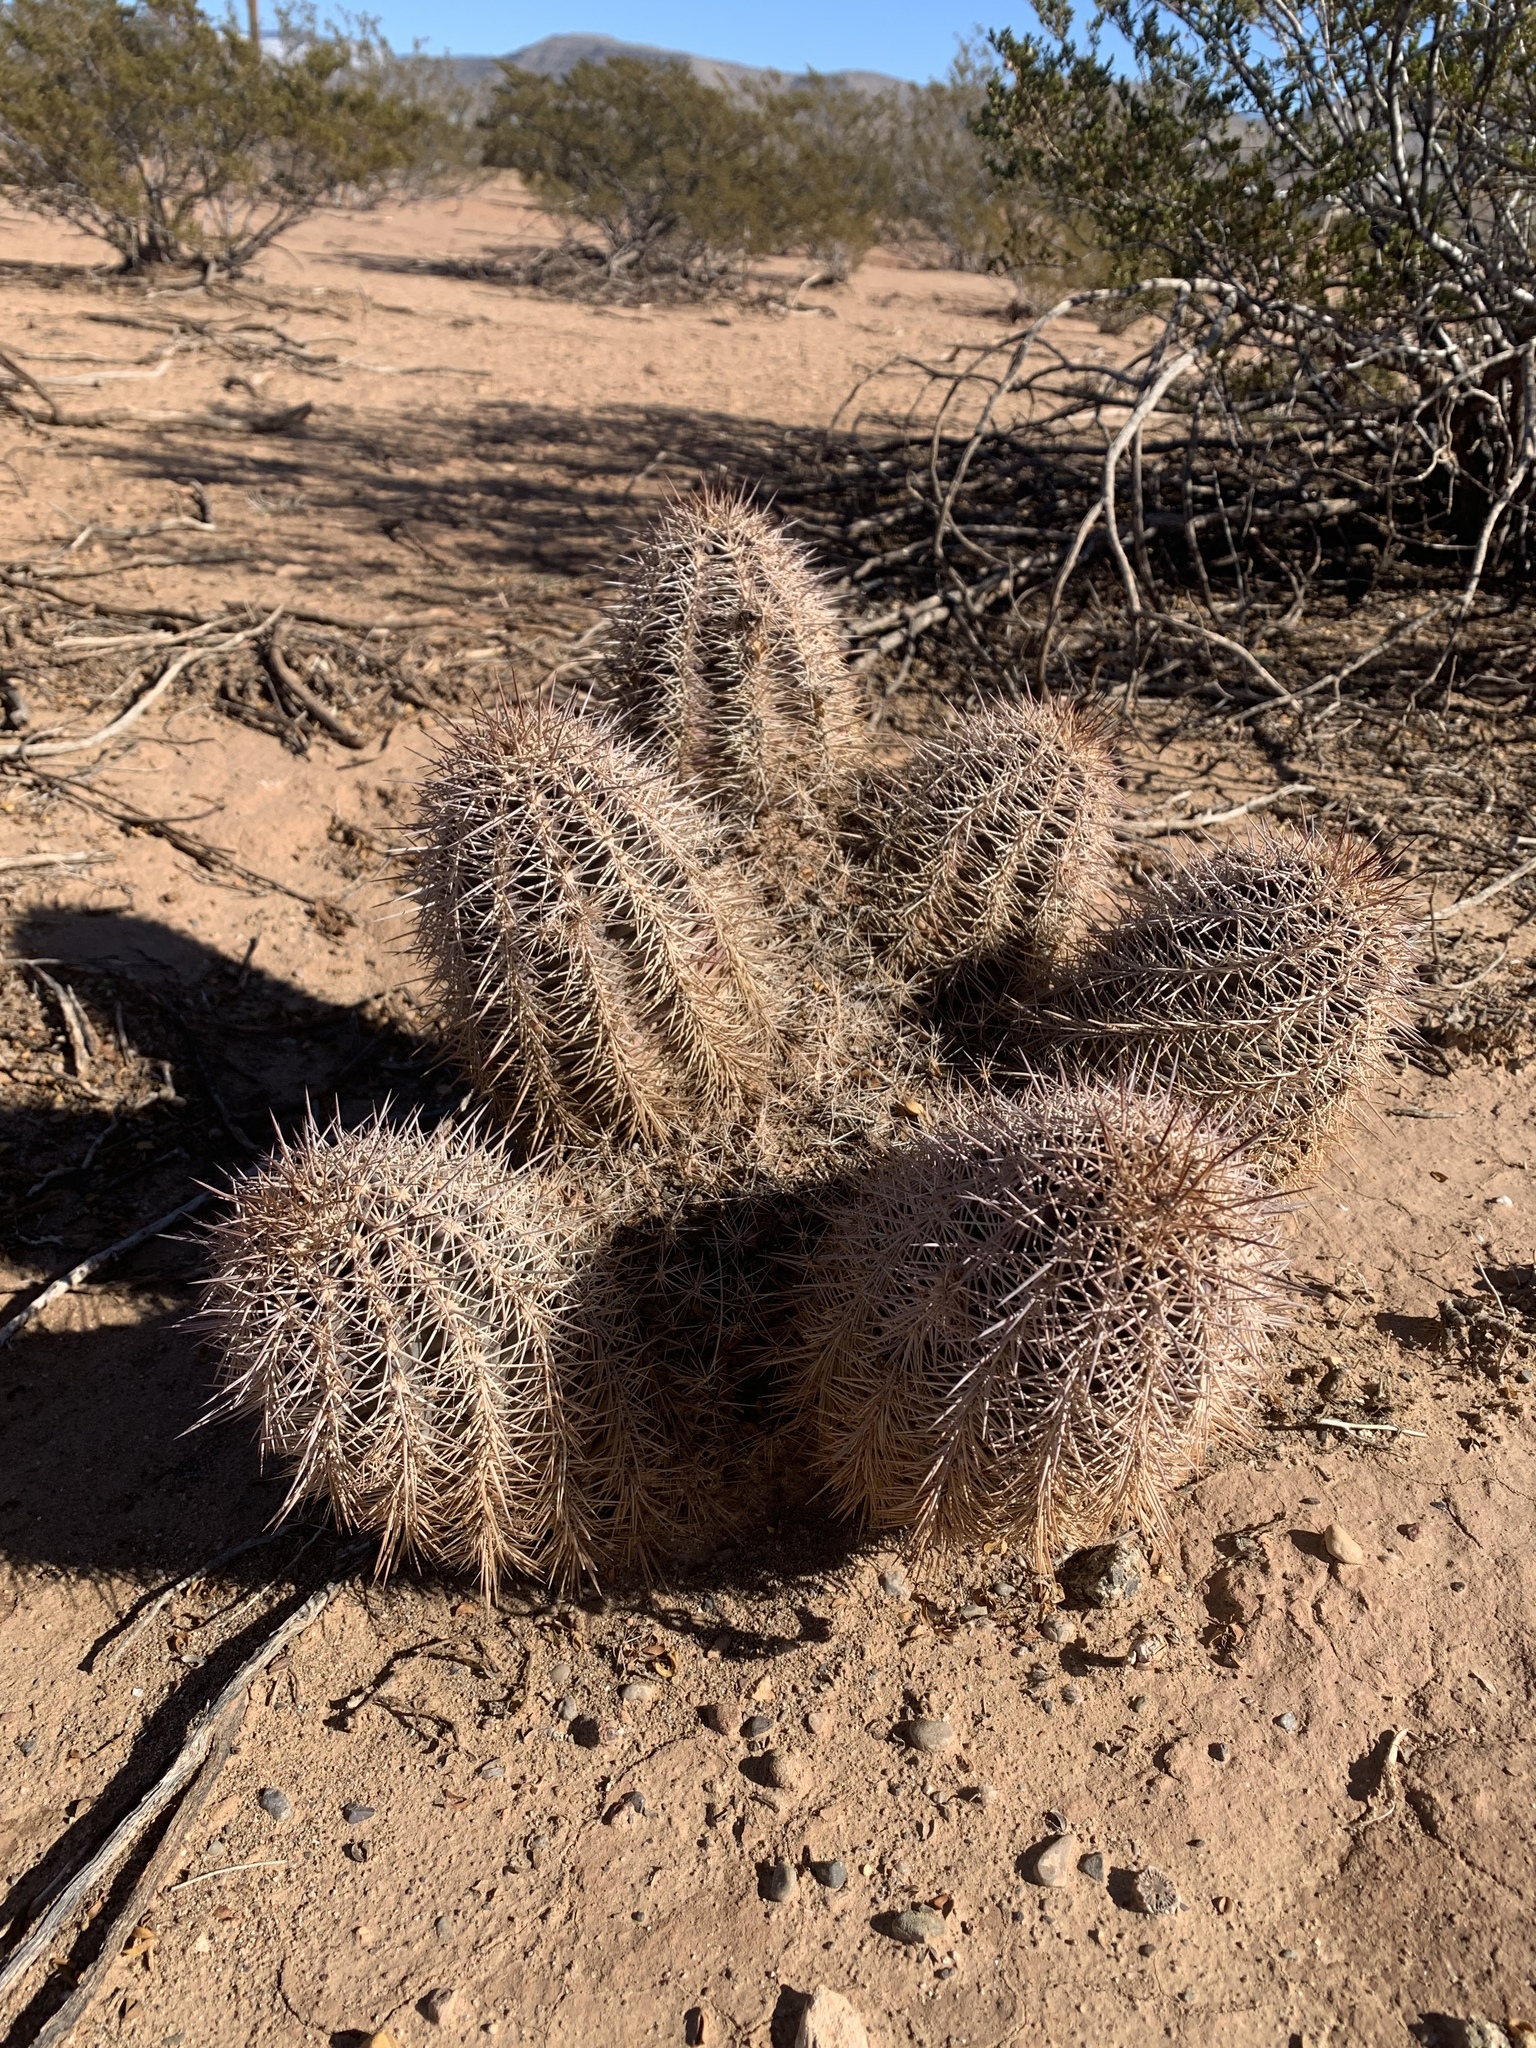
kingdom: Plantae
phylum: Tracheophyta
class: Magnoliopsida
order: Caryophyllales
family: Cactaceae
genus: Echinocereus
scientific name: Echinocereus coccineus
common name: Scarlet hedgehog cactus
